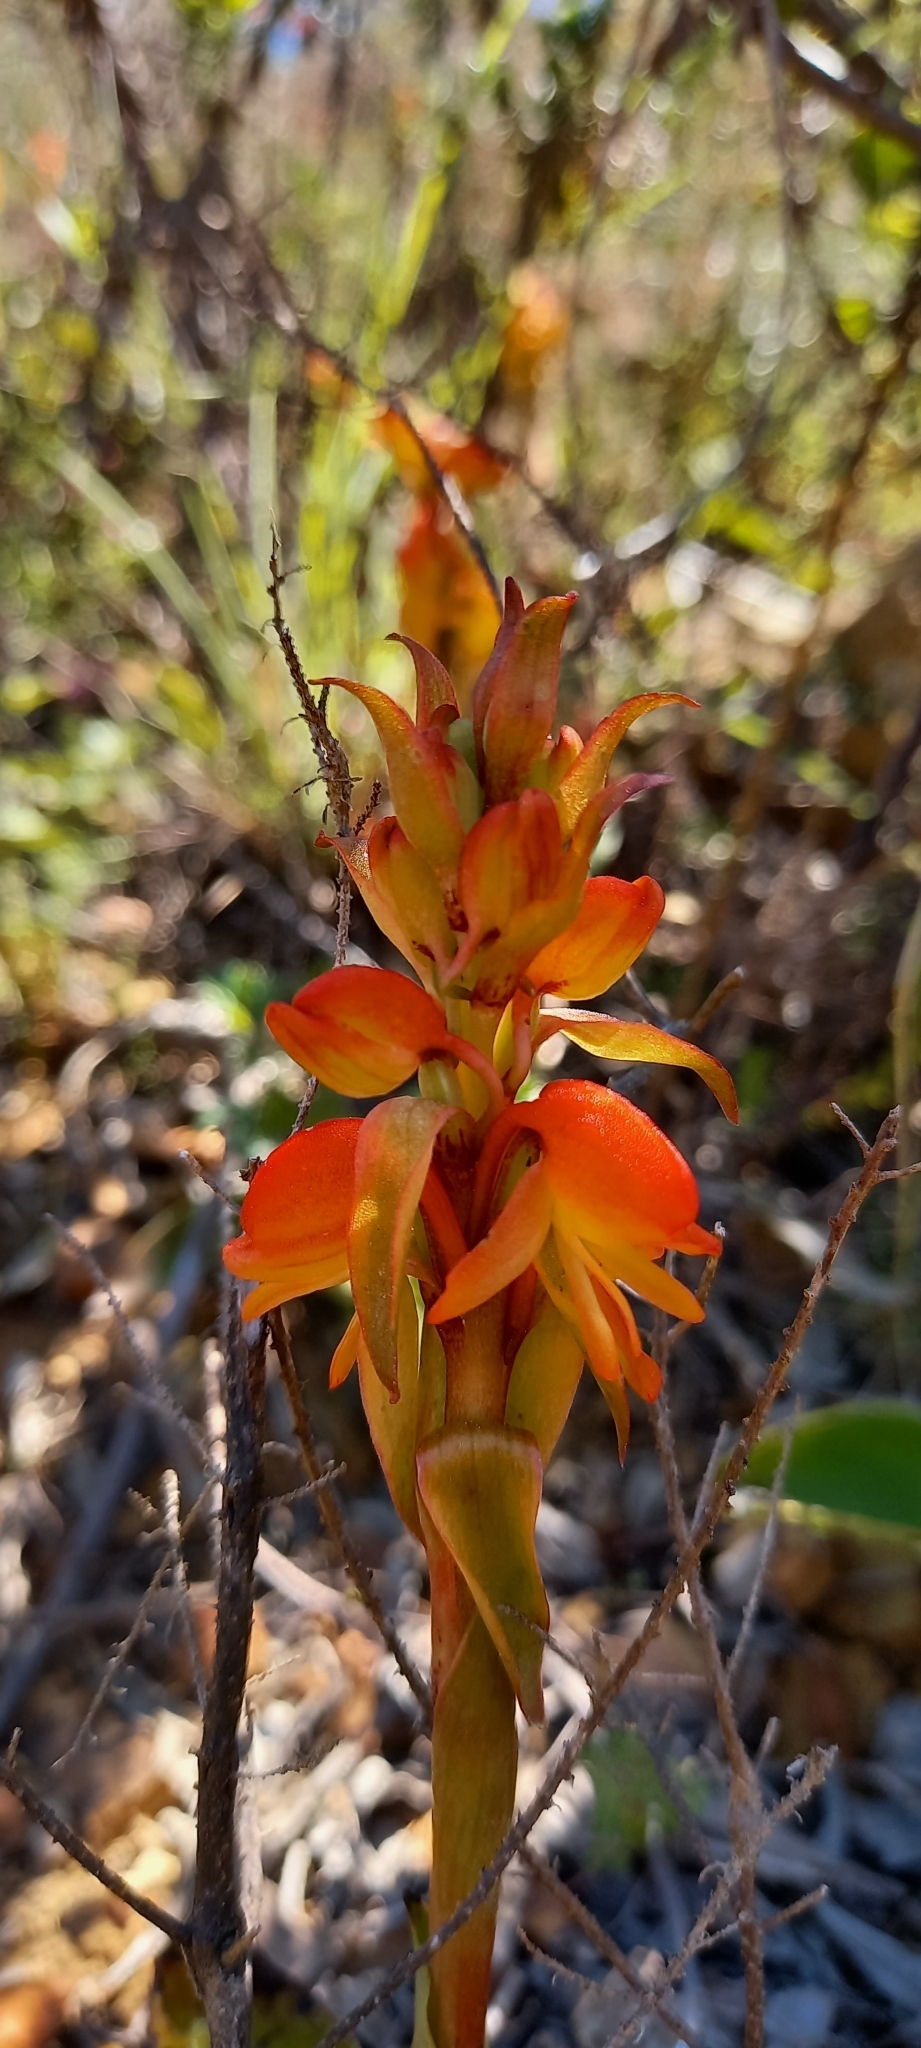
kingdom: Plantae
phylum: Tracheophyta
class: Liliopsida
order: Asparagales
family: Orchidaceae
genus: Satyrium
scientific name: Satyrium coriifolium
